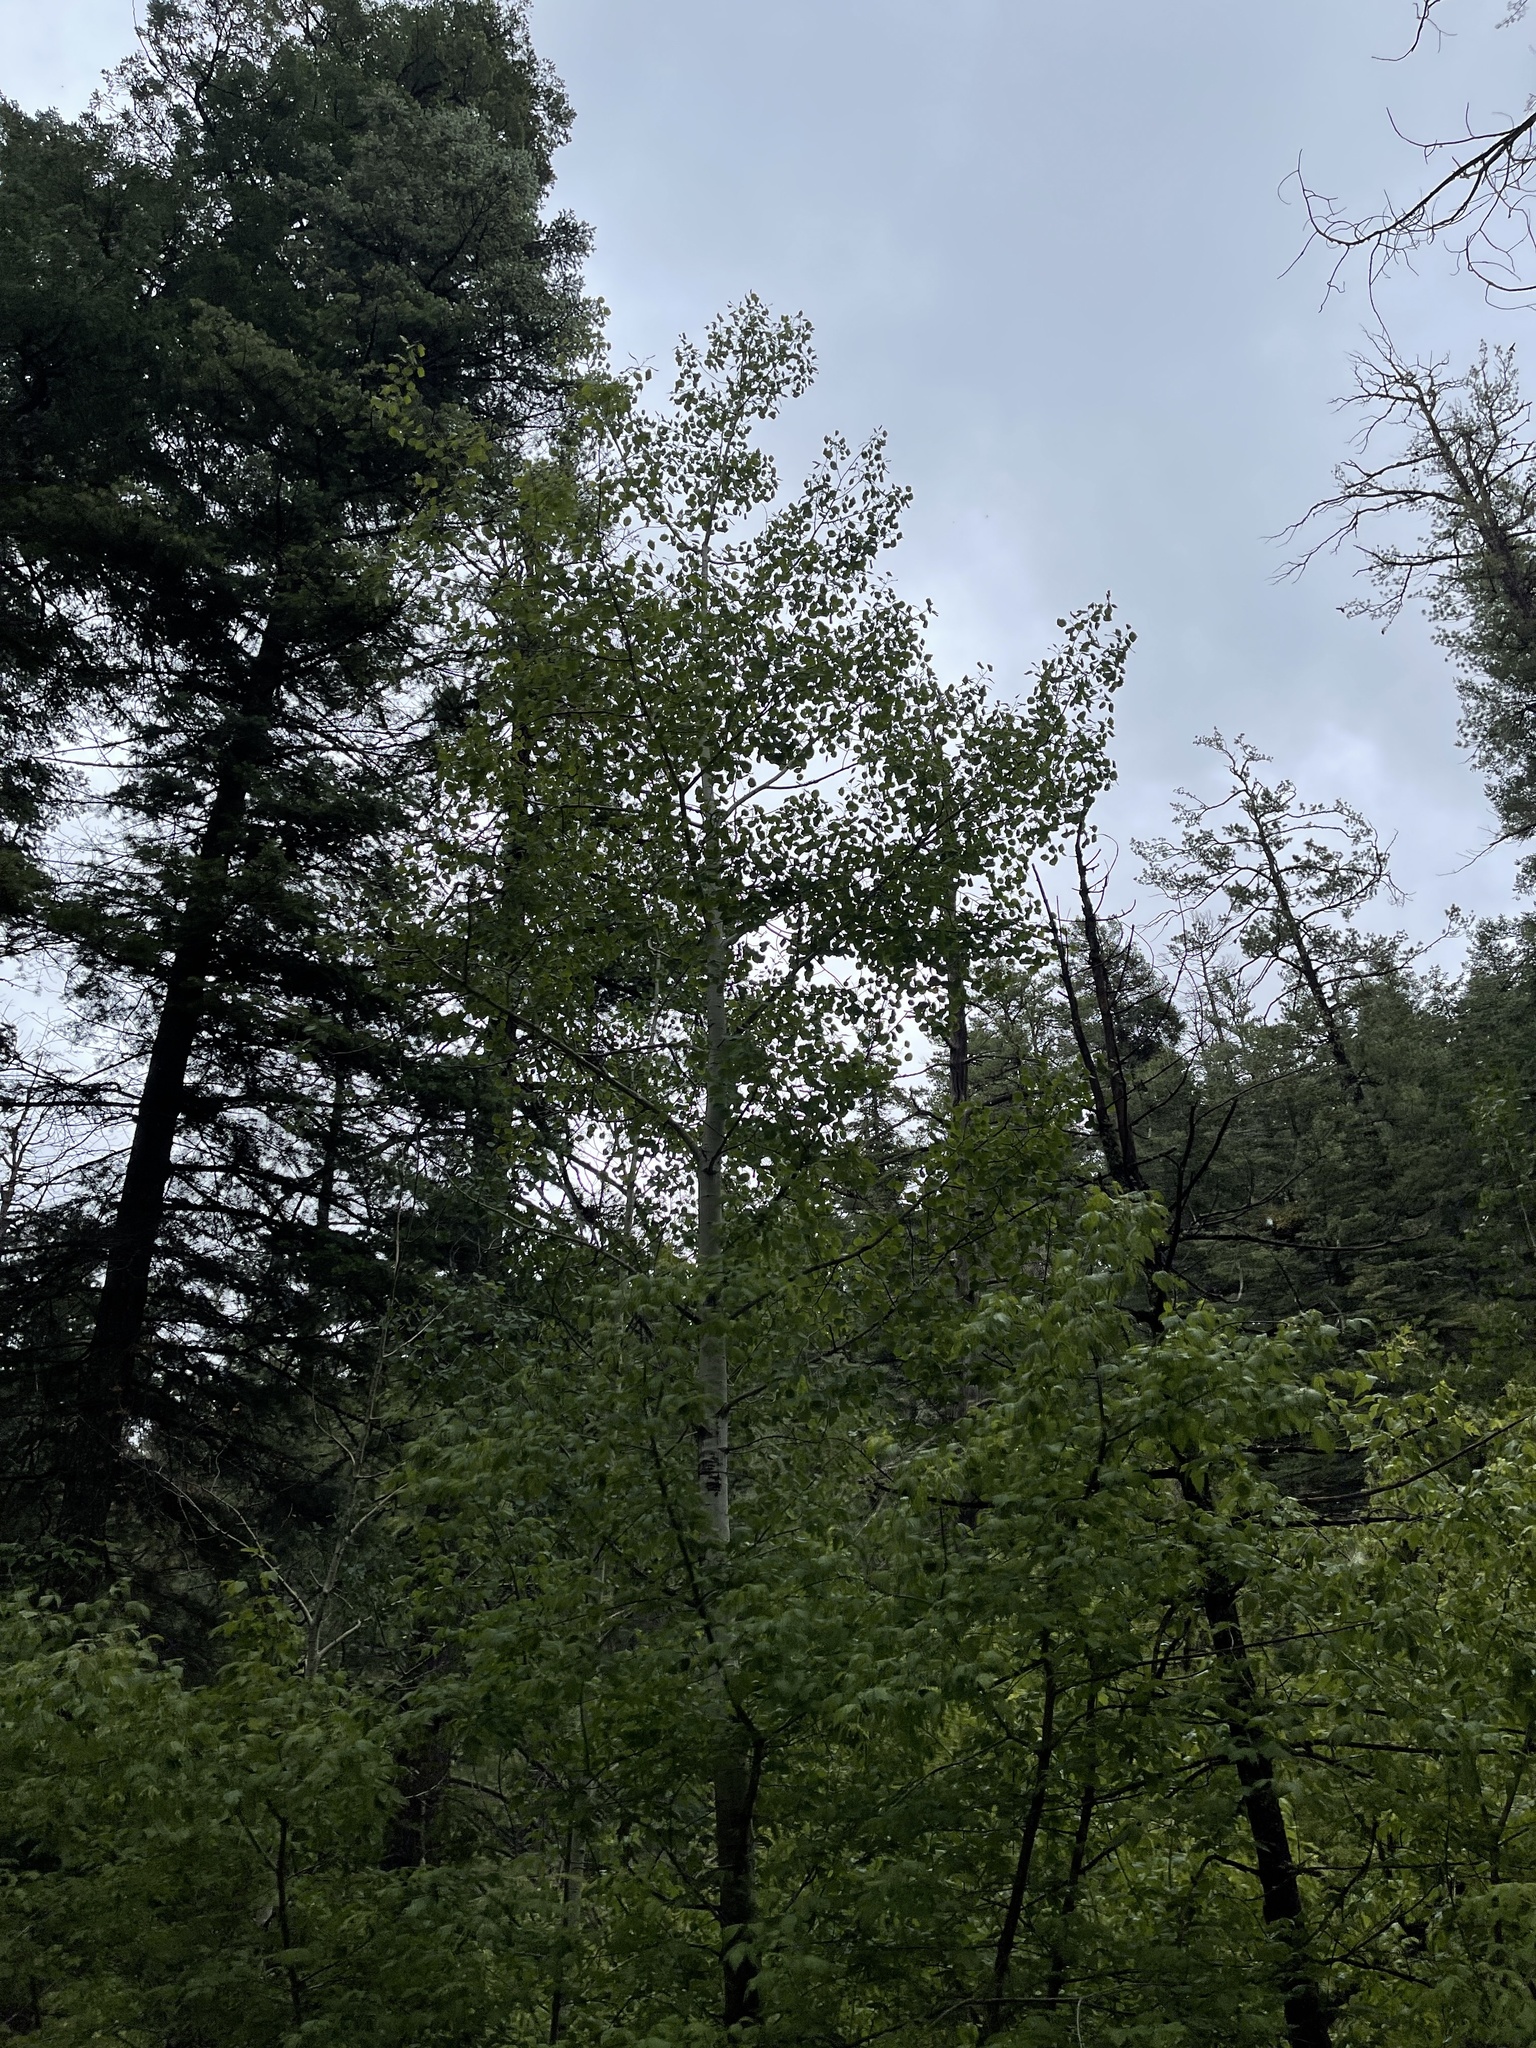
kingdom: Plantae
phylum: Tracheophyta
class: Magnoliopsida
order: Malpighiales
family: Salicaceae
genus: Populus
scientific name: Populus tremuloides
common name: Quaking aspen
